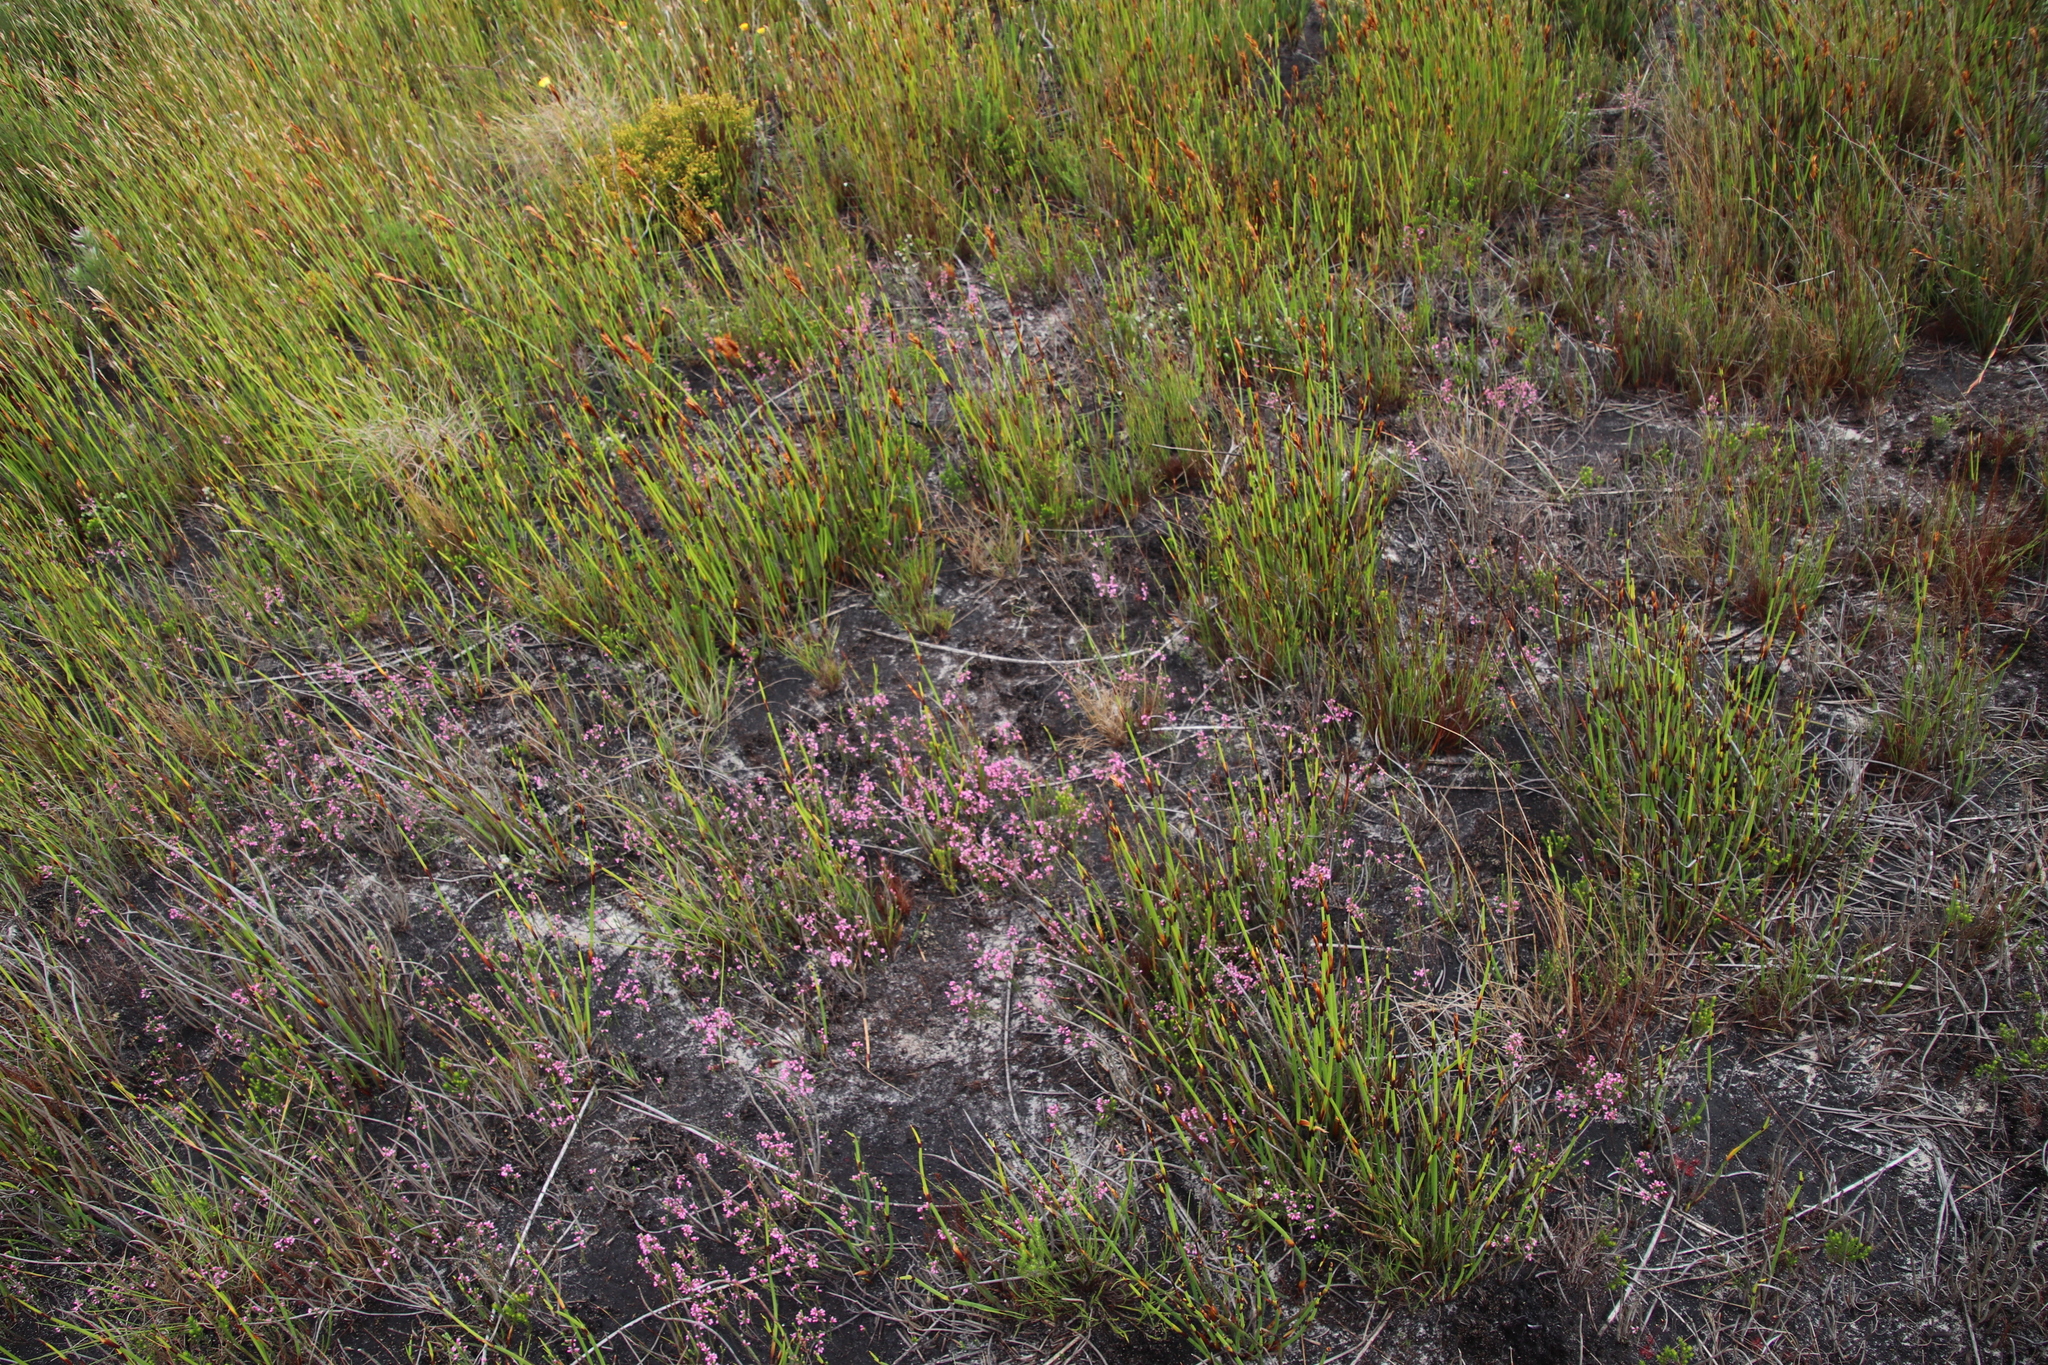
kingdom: Plantae
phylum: Tracheophyta
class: Magnoliopsida
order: Ericales
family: Ericaceae
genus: Erica
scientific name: Erica gnaphaloides
